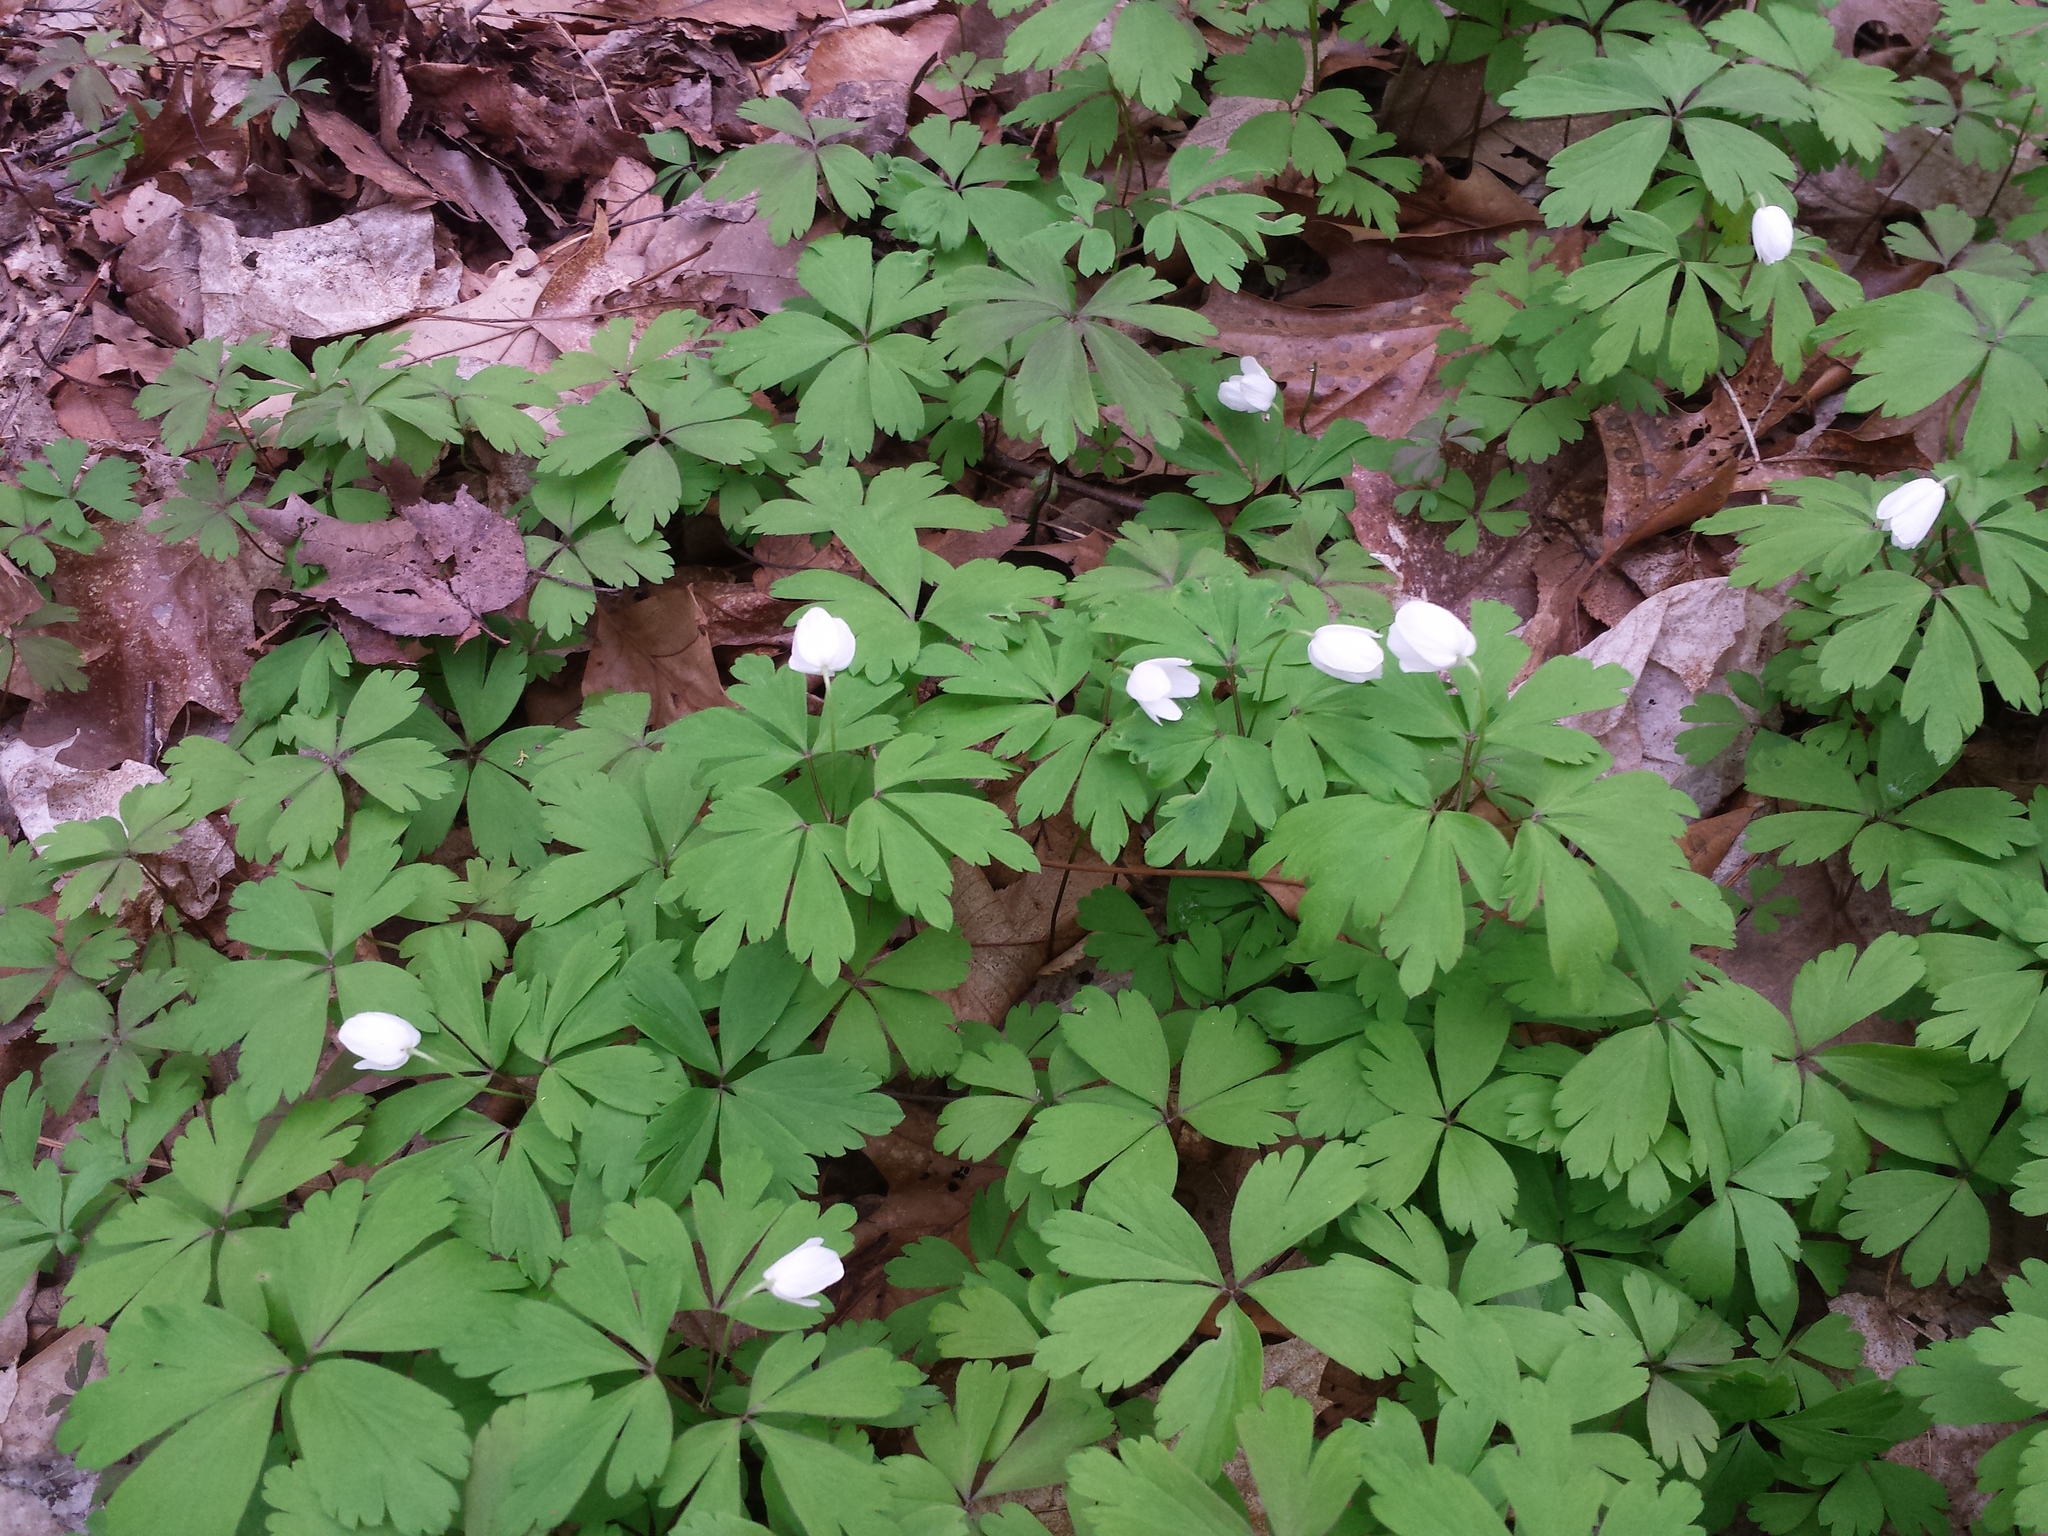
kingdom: Plantae
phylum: Tracheophyta
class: Magnoliopsida
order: Ranunculales
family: Ranunculaceae
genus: Anemone
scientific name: Anemone quinquefolia
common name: Wood anemone
